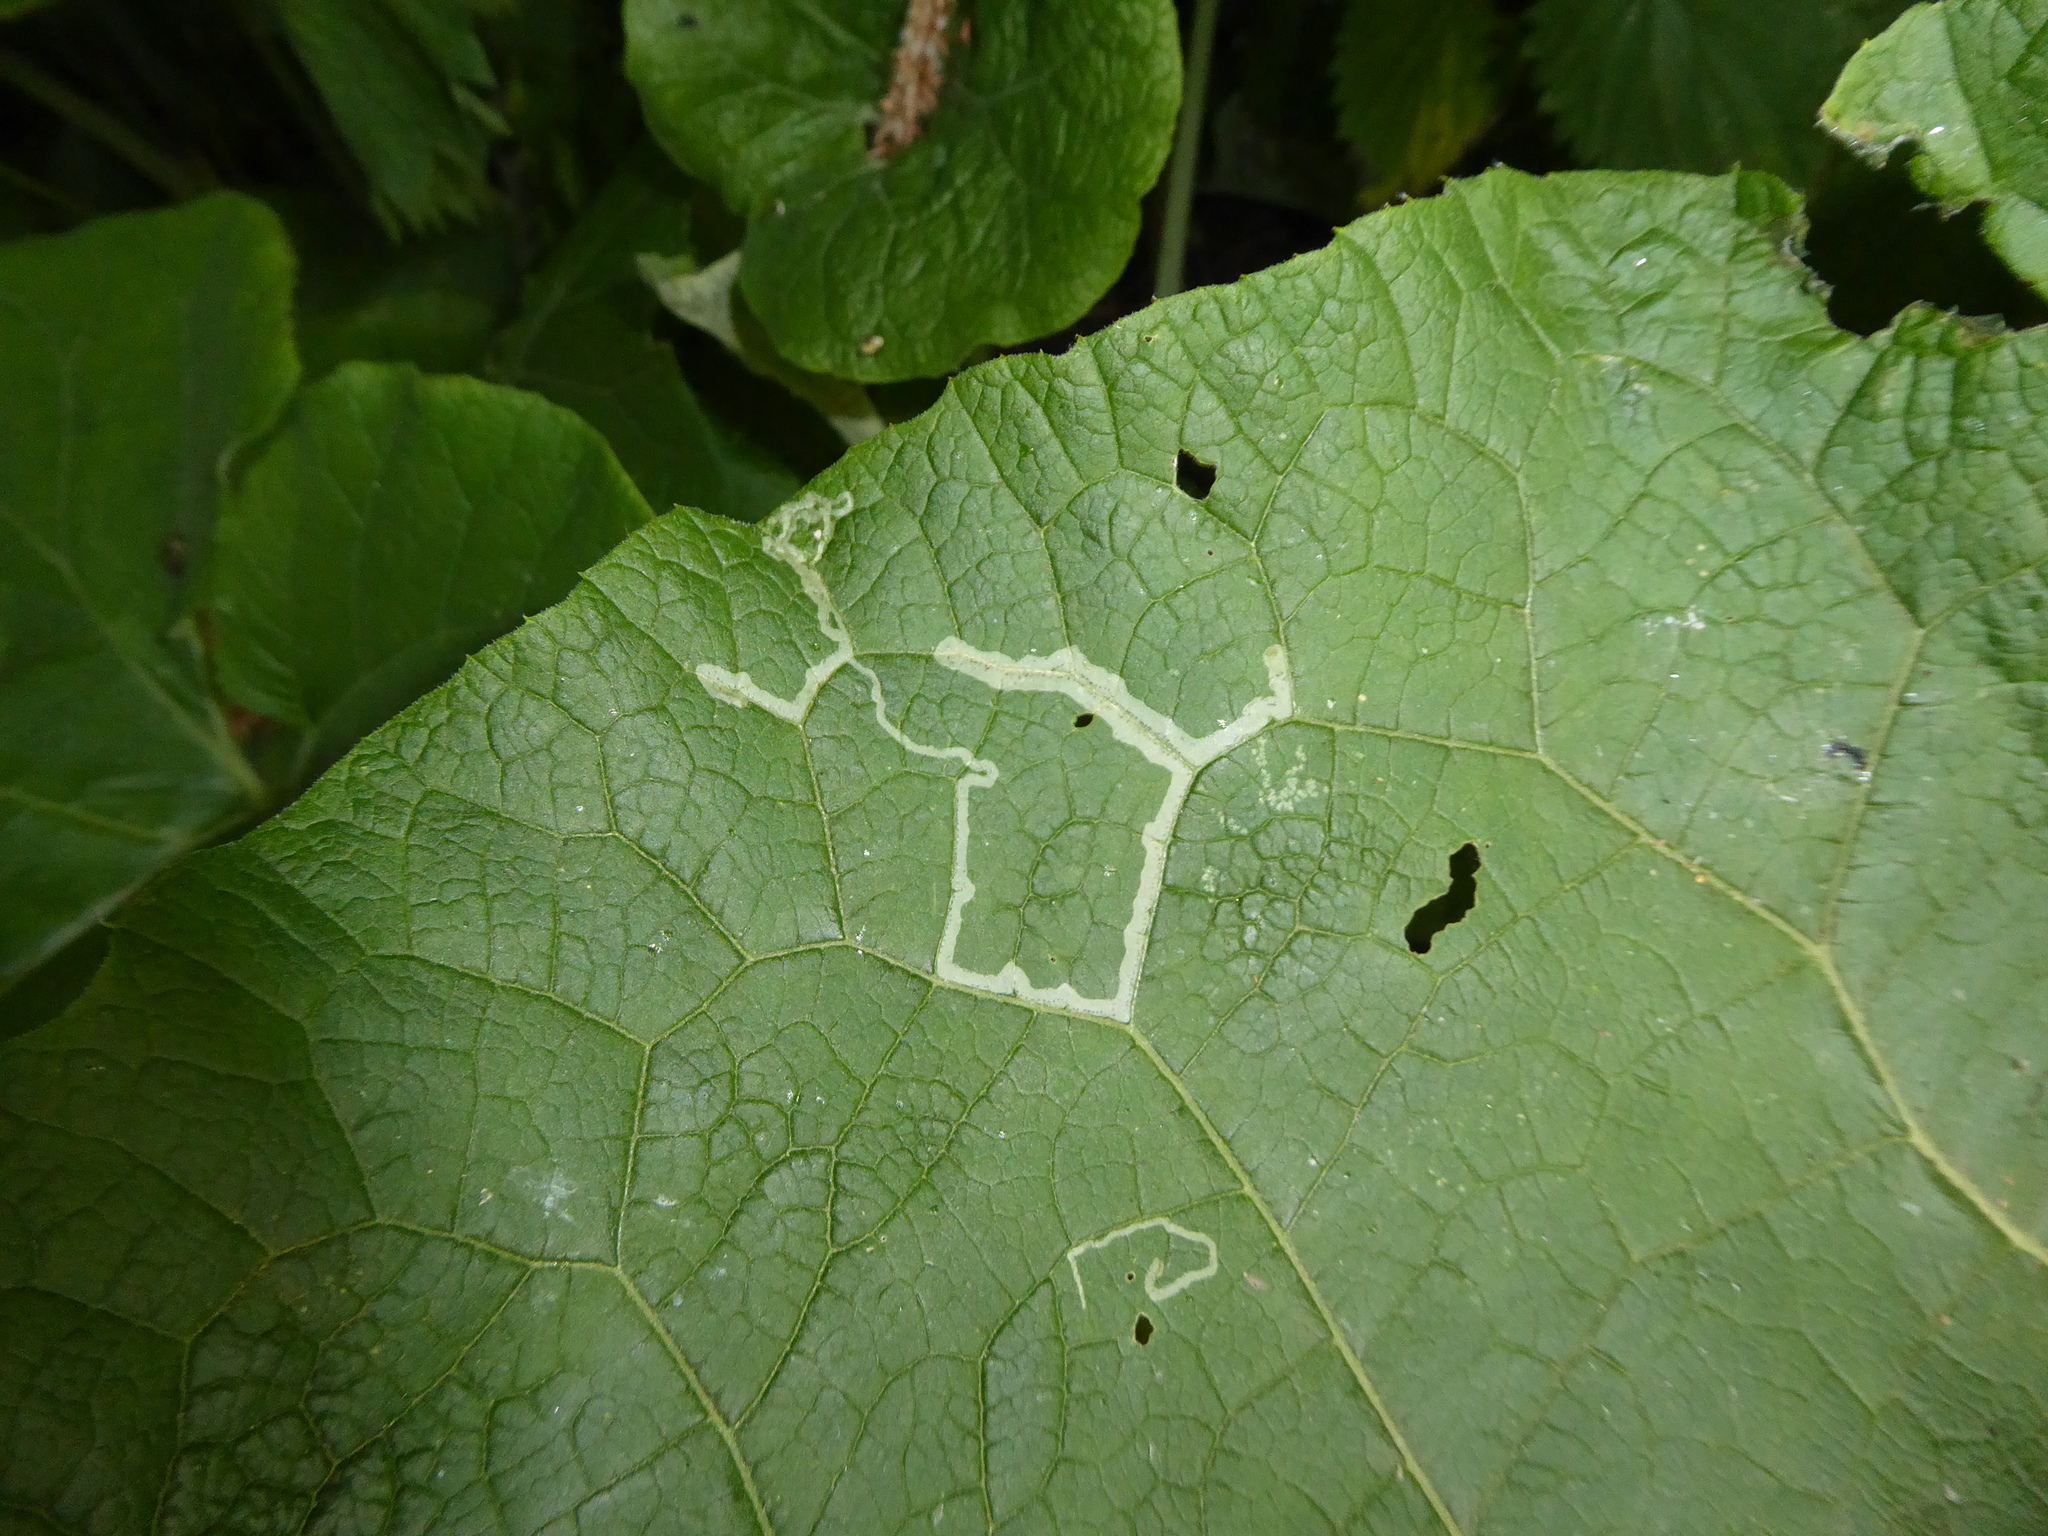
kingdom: Animalia
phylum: Arthropoda
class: Insecta
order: Diptera
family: Agromyzidae
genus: Phytomyza
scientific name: Phytomyza lappae
